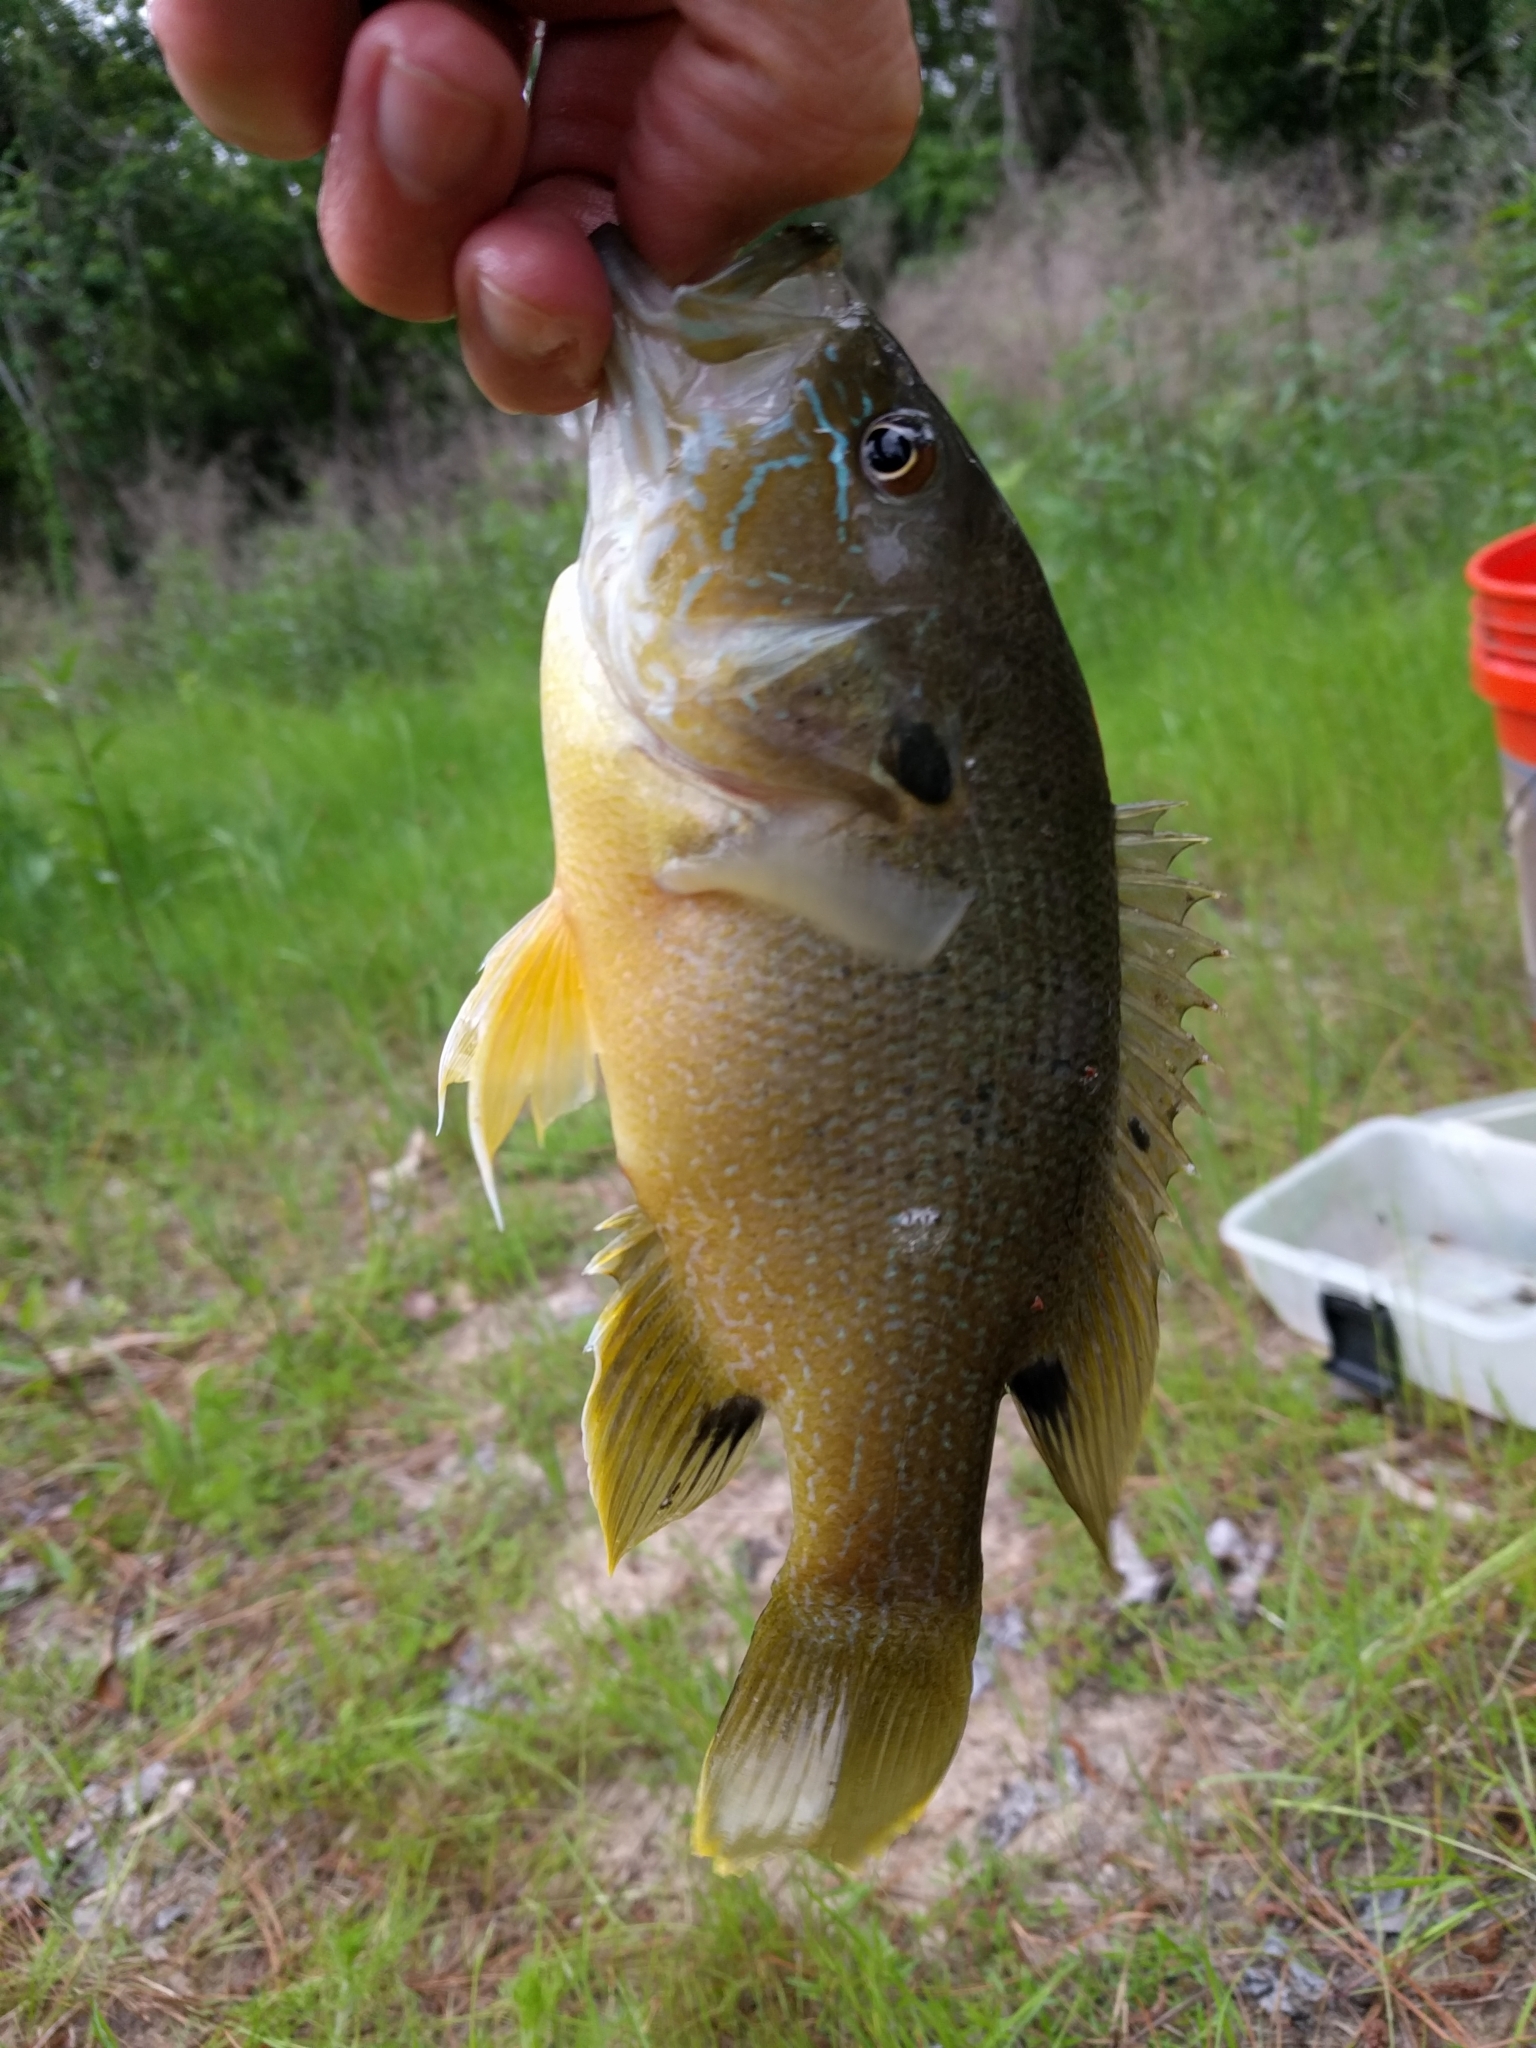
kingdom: Animalia
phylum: Chordata
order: Perciformes
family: Centrarchidae
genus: Lepomis
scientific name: Lepomis cyanellus
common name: Green sunfish
